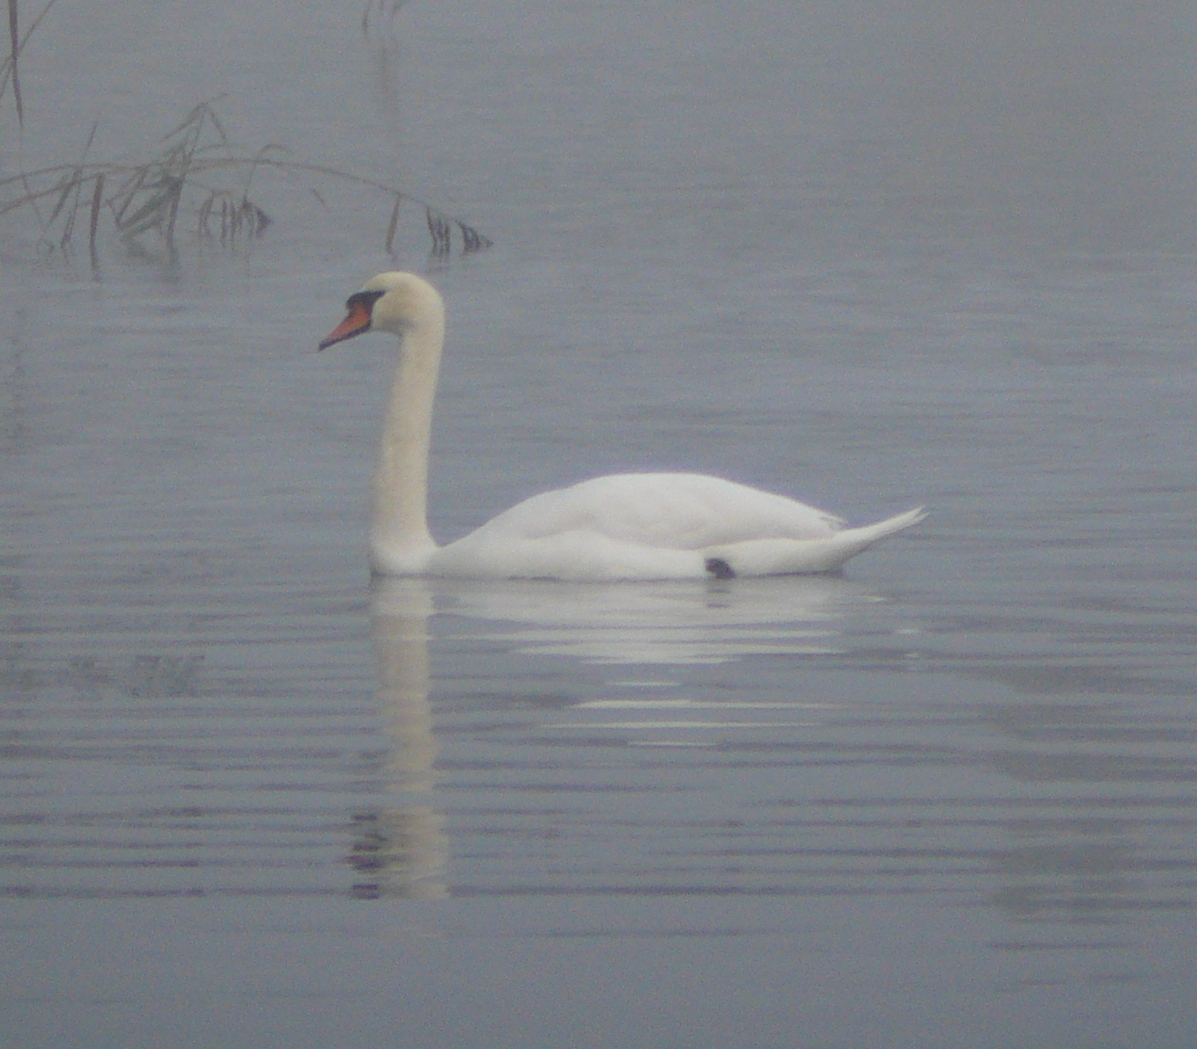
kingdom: Animalia
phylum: Chordata
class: Aves
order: Anseriformes
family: Anatidae
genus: Cygnus
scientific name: Cygnus olor
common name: Mute swan
